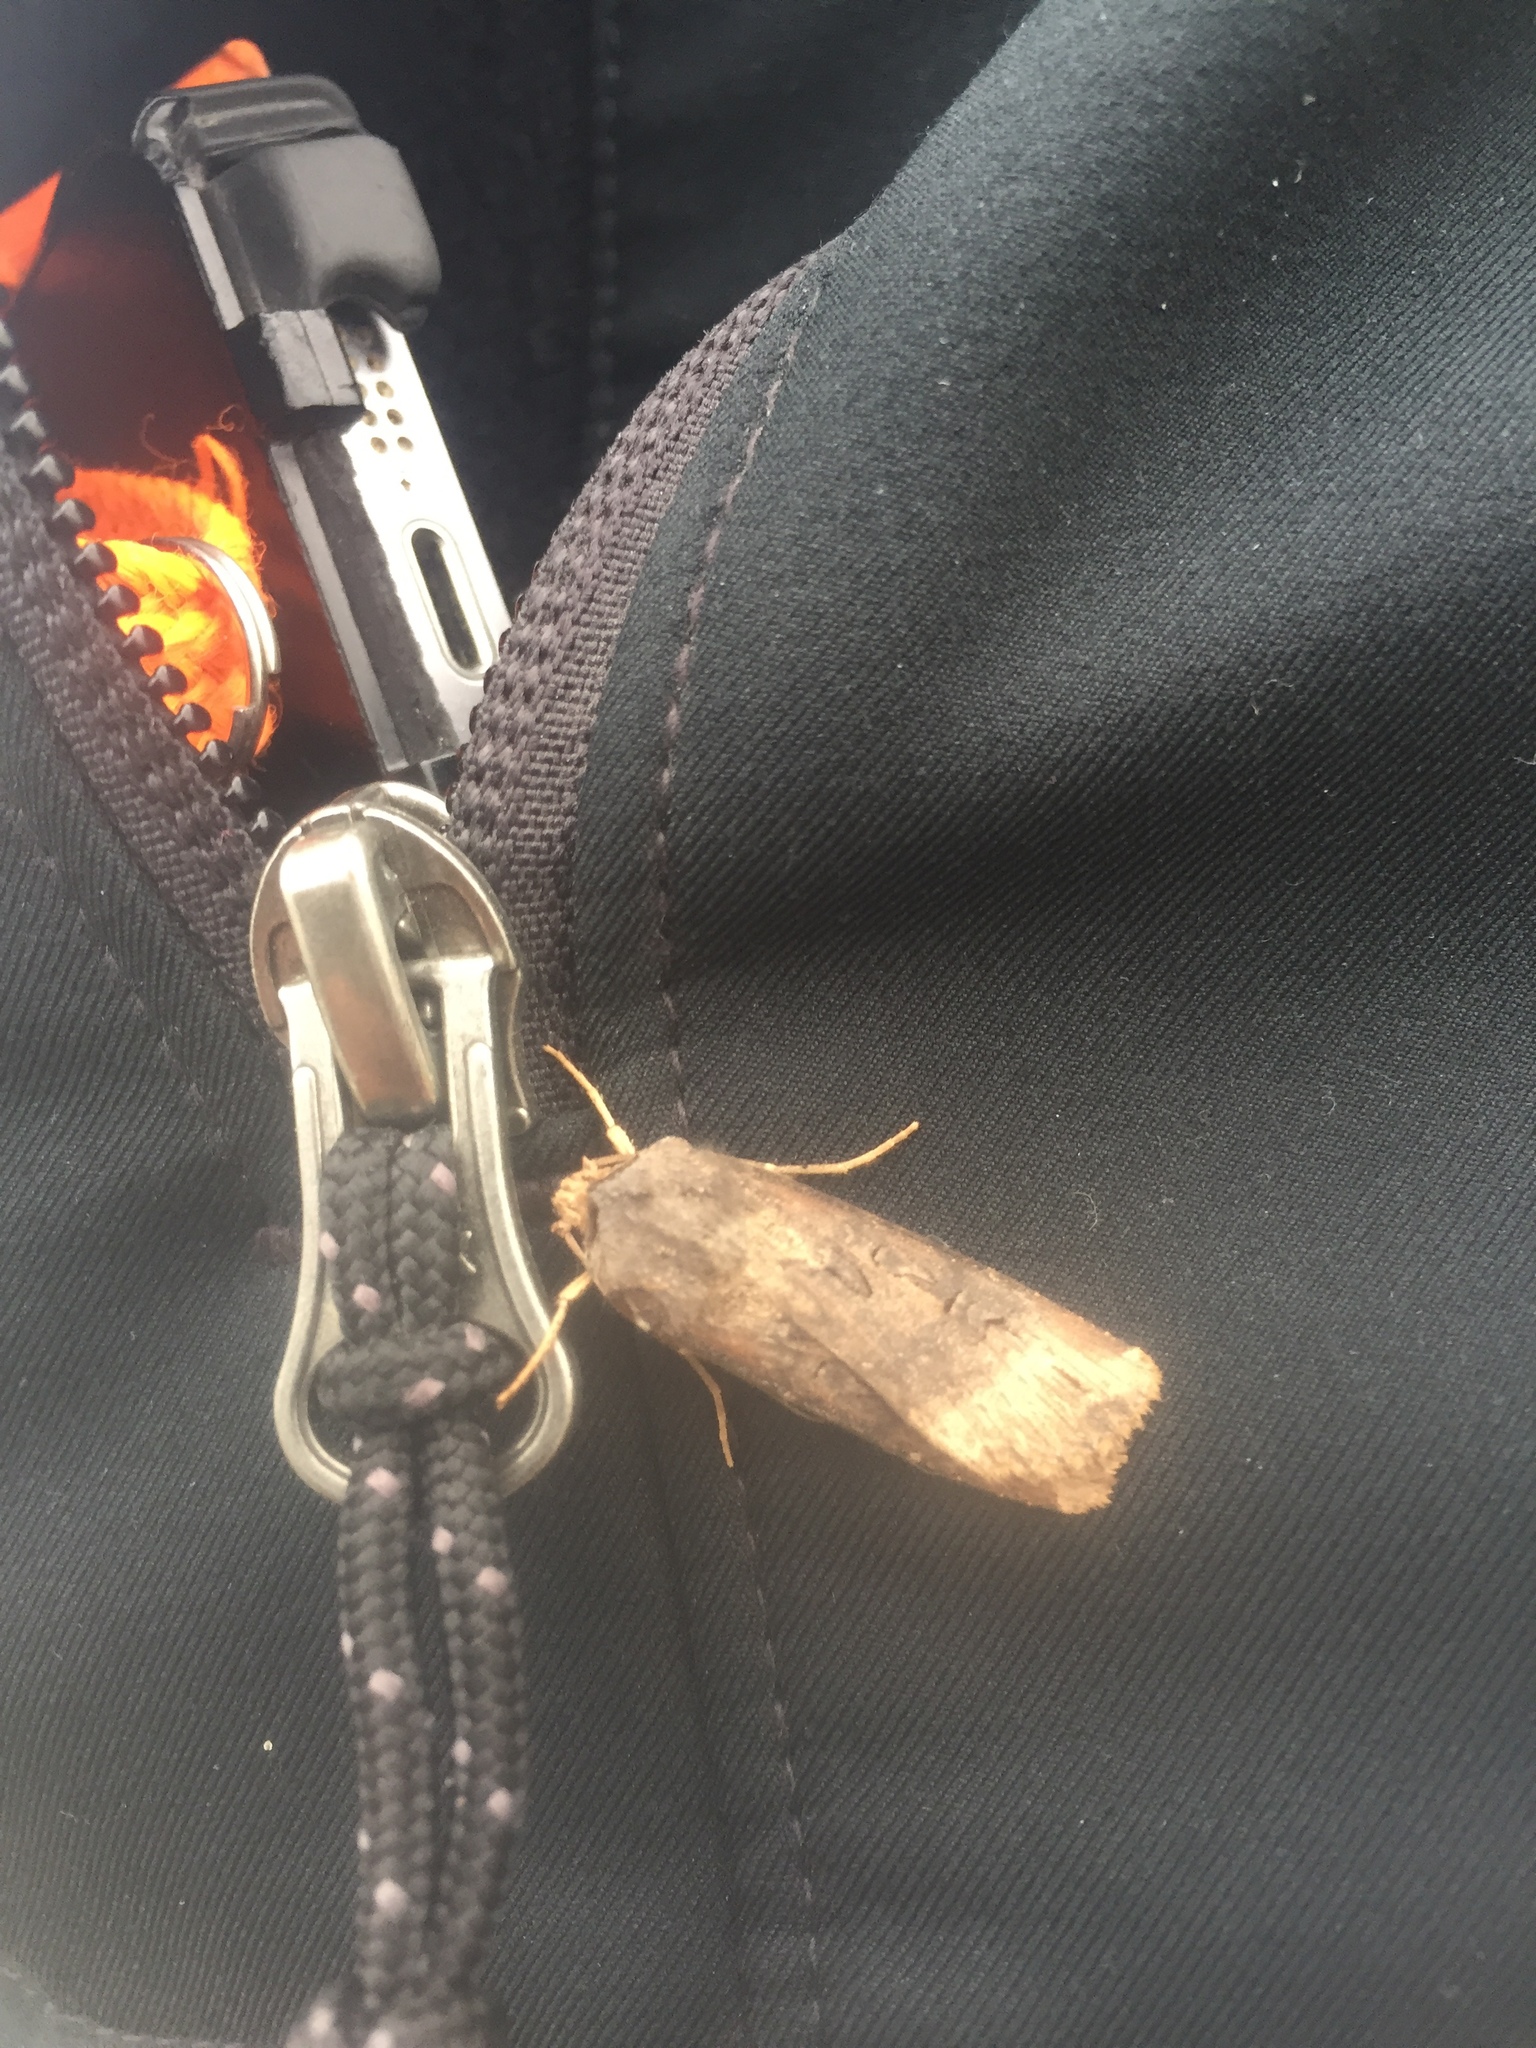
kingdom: Animalia
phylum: Arthropoda
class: Insecta
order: Lepidoptera
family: Noctuidae
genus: Agrotis
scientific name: Agrotis ipsilon
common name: Dark sword-grass
